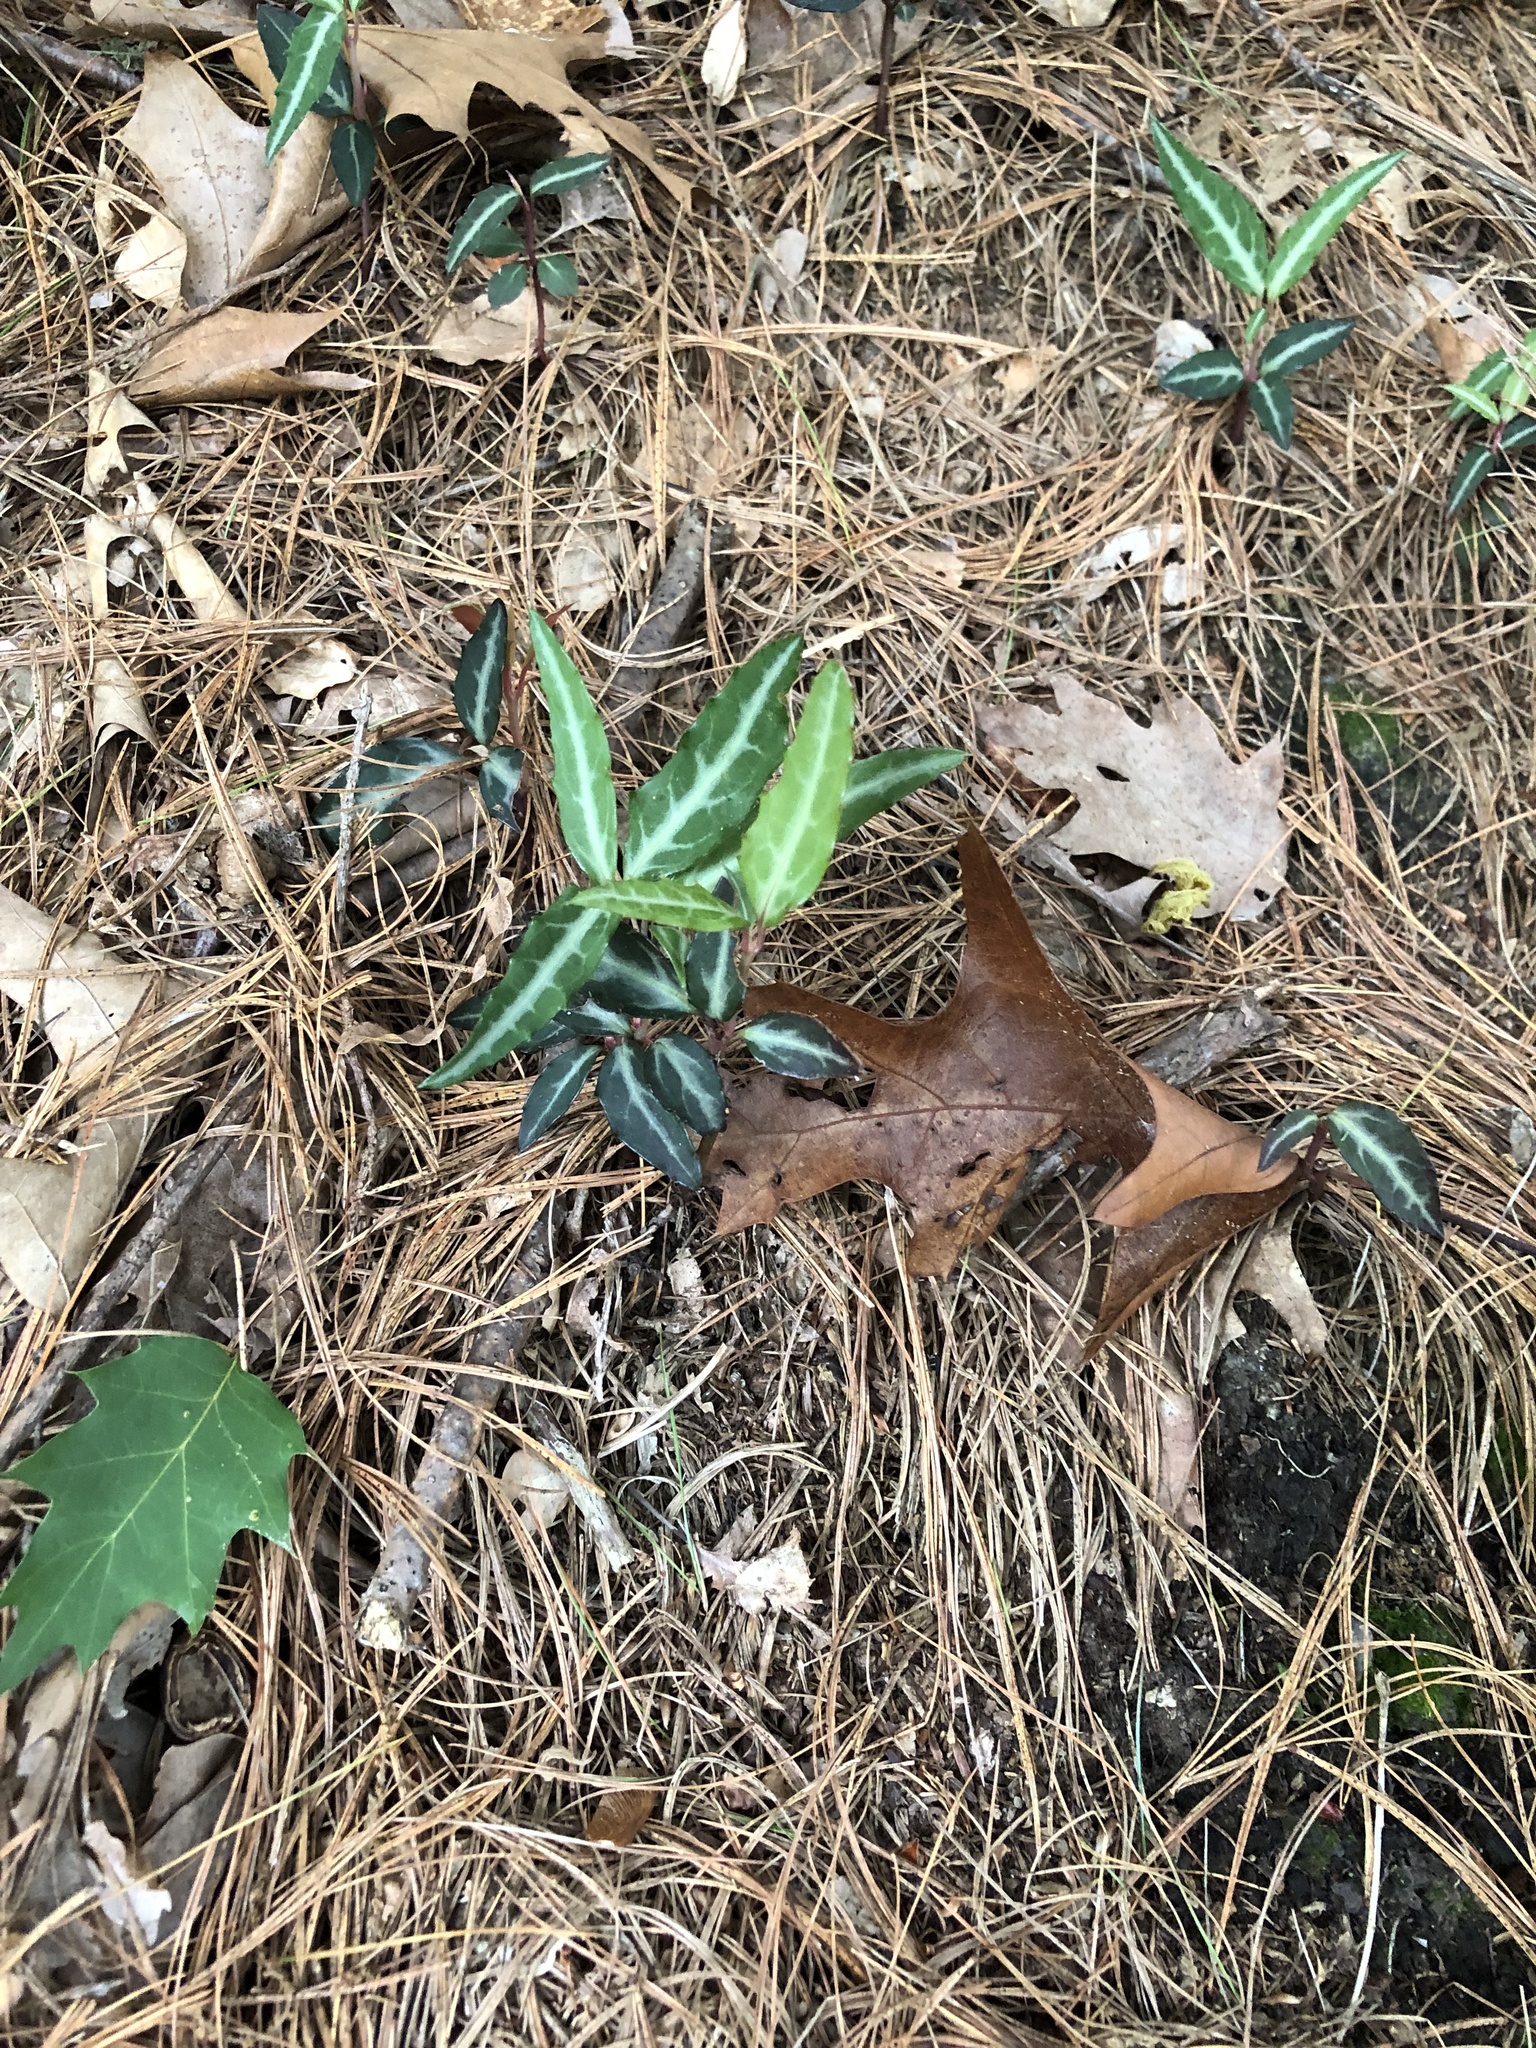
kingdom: Plantae
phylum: Tracheophyta
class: Magnoliopsida
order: Ericales
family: Ericaceae
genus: Chimaphila
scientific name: Chimaphila maculata
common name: Spotted pipsissewa
